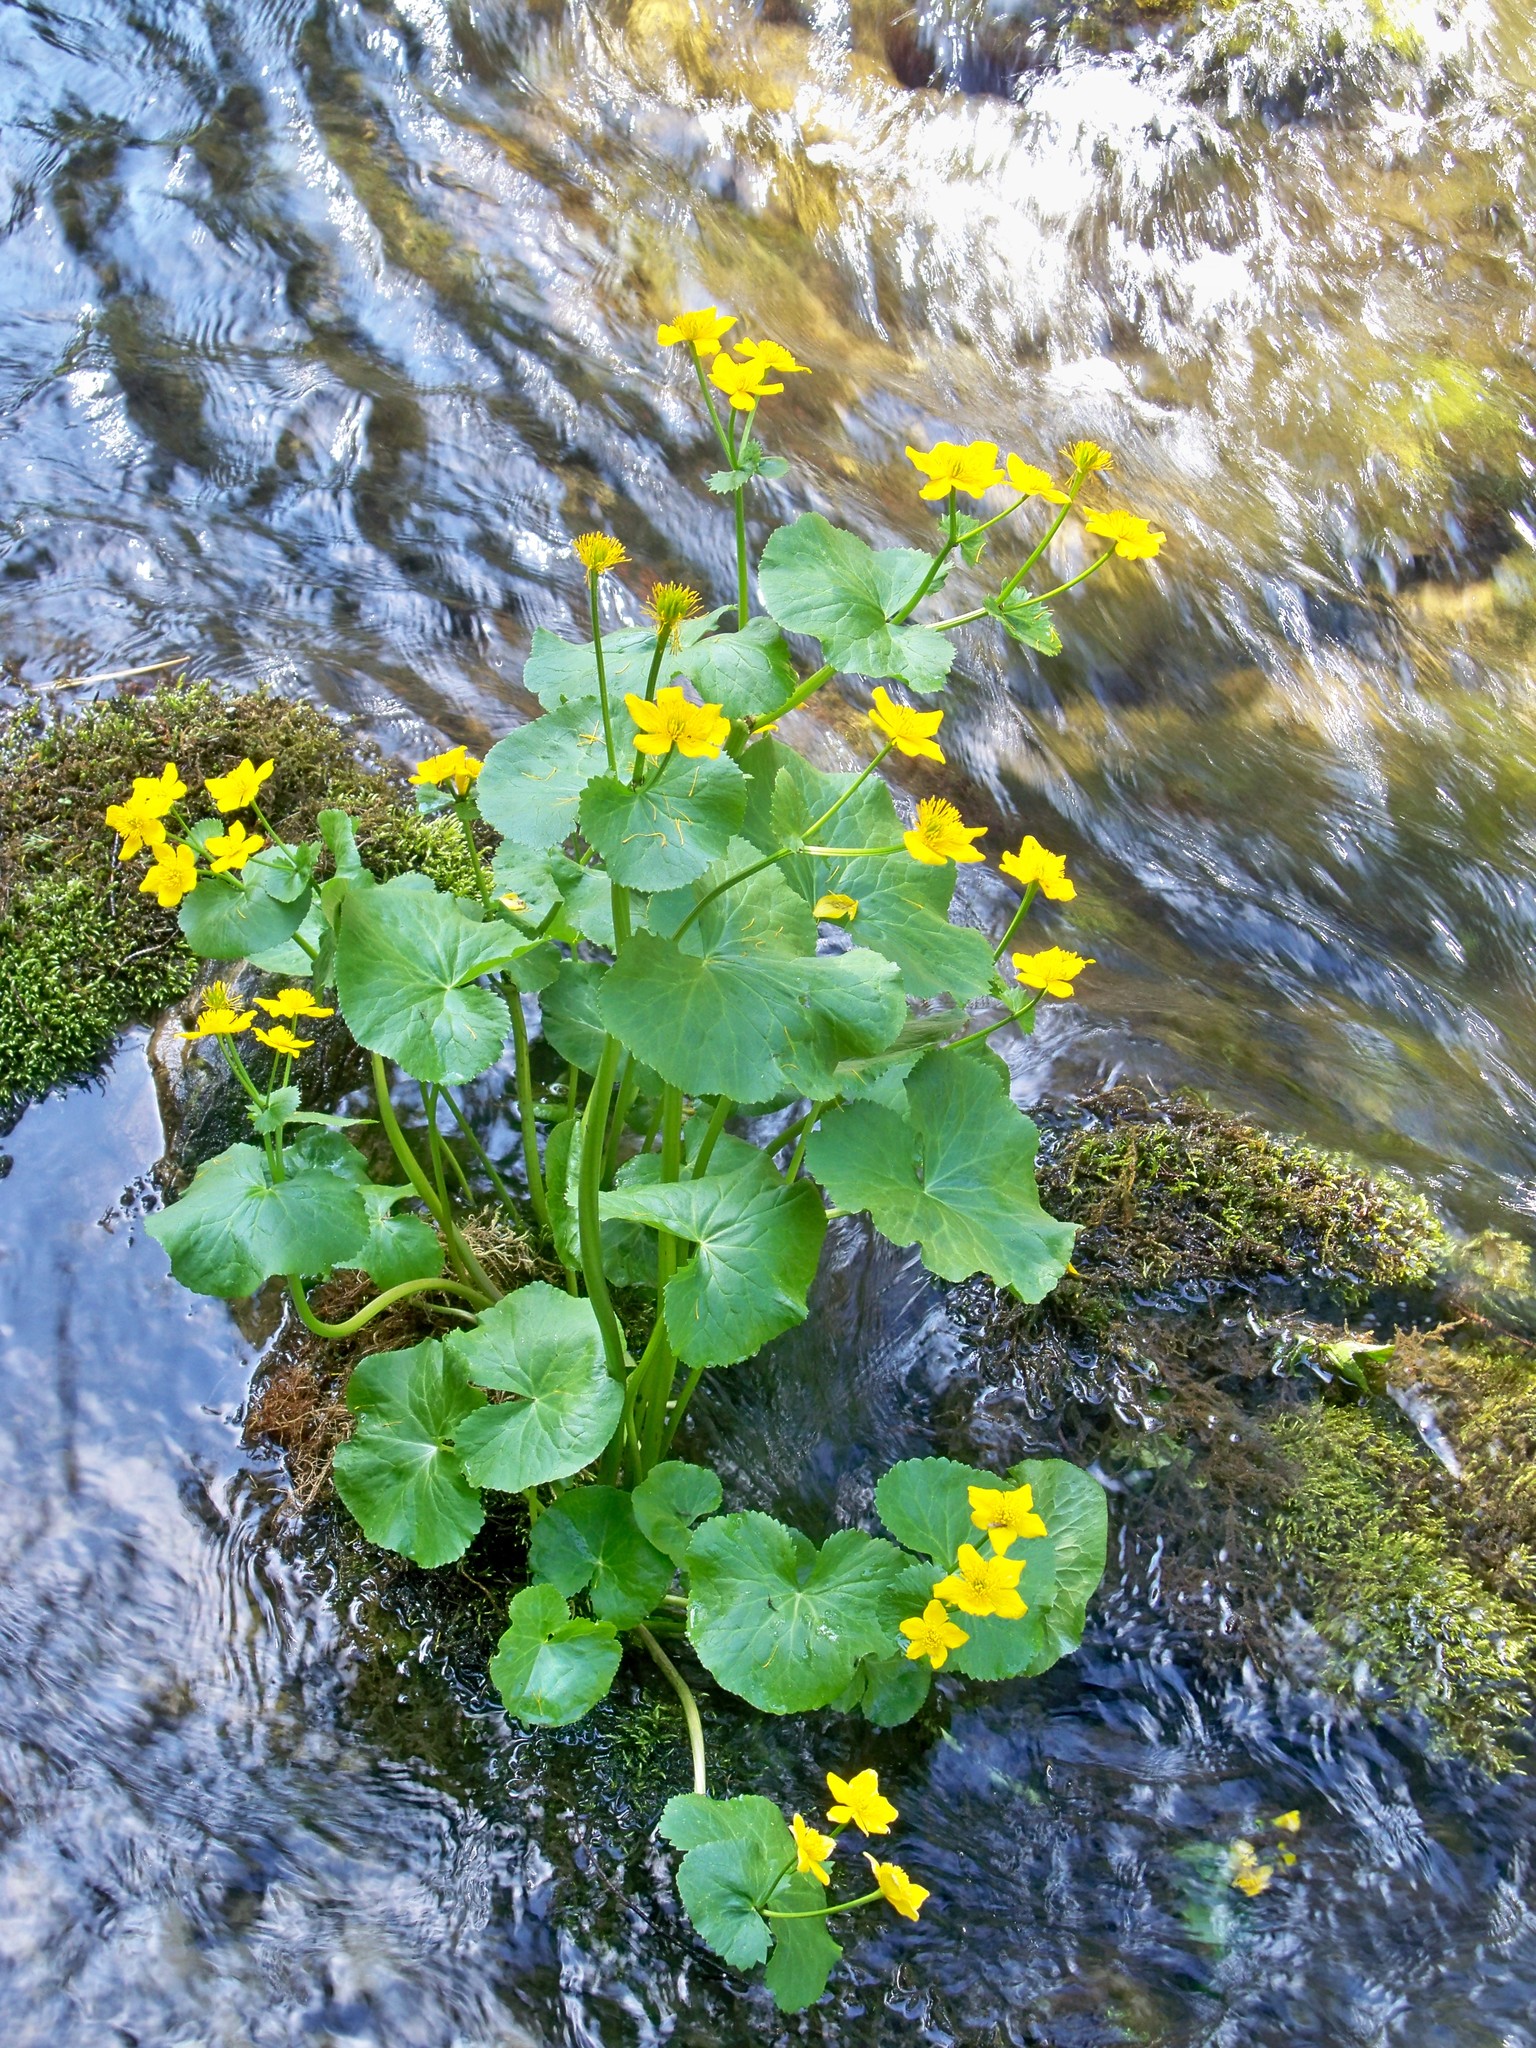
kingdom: Plantae
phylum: Tracheophyta
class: Magnoliopsida
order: Ranunculales
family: Ranunculaceae
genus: Caltha
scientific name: Caltha palustris
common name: Marsh marigold
